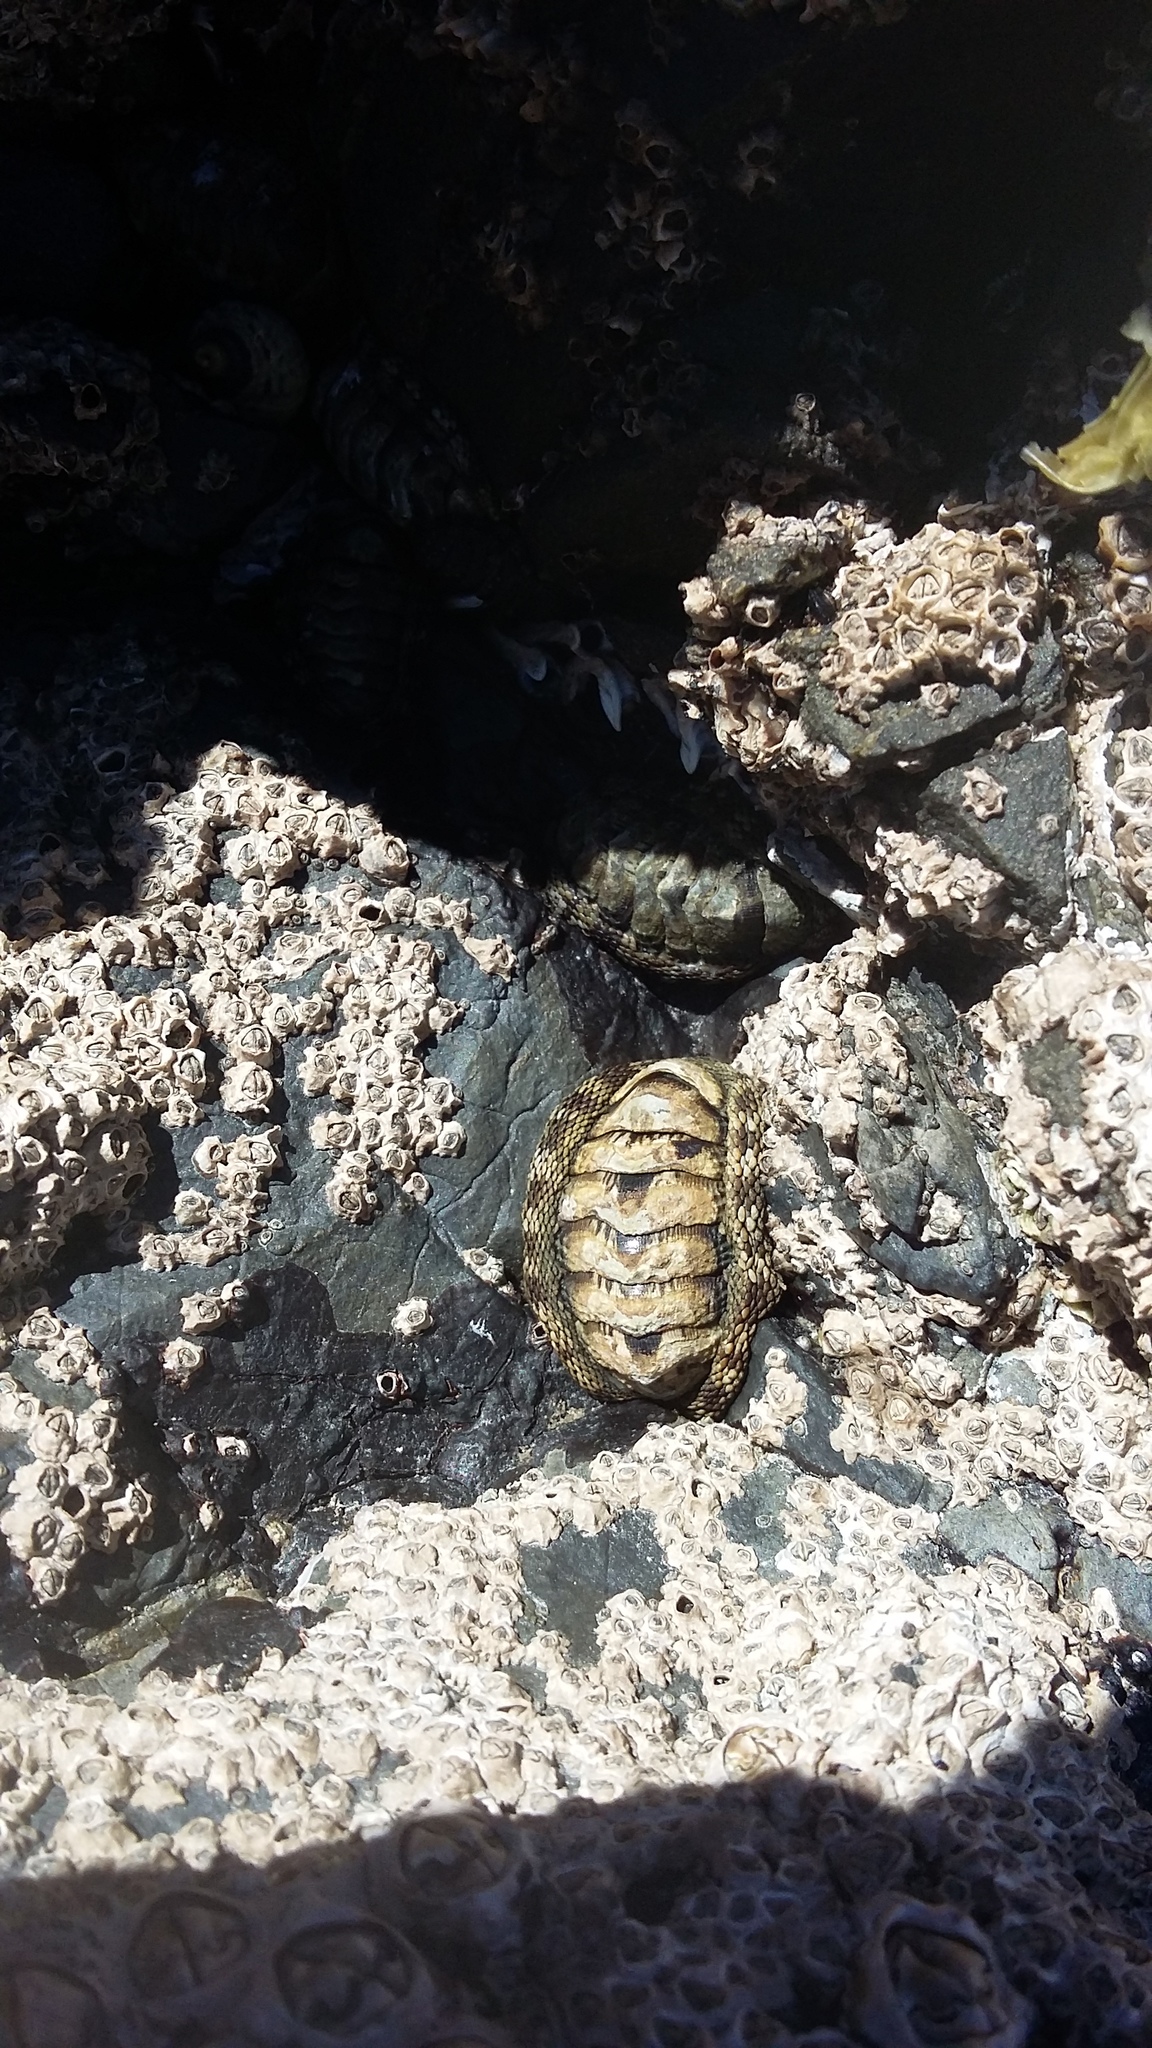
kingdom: Animalia
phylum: Mollusca
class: Polyplacophora
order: Chitonida
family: Chitonidae
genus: Sypharochiton
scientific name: Sypharochiton pelliserpentis
